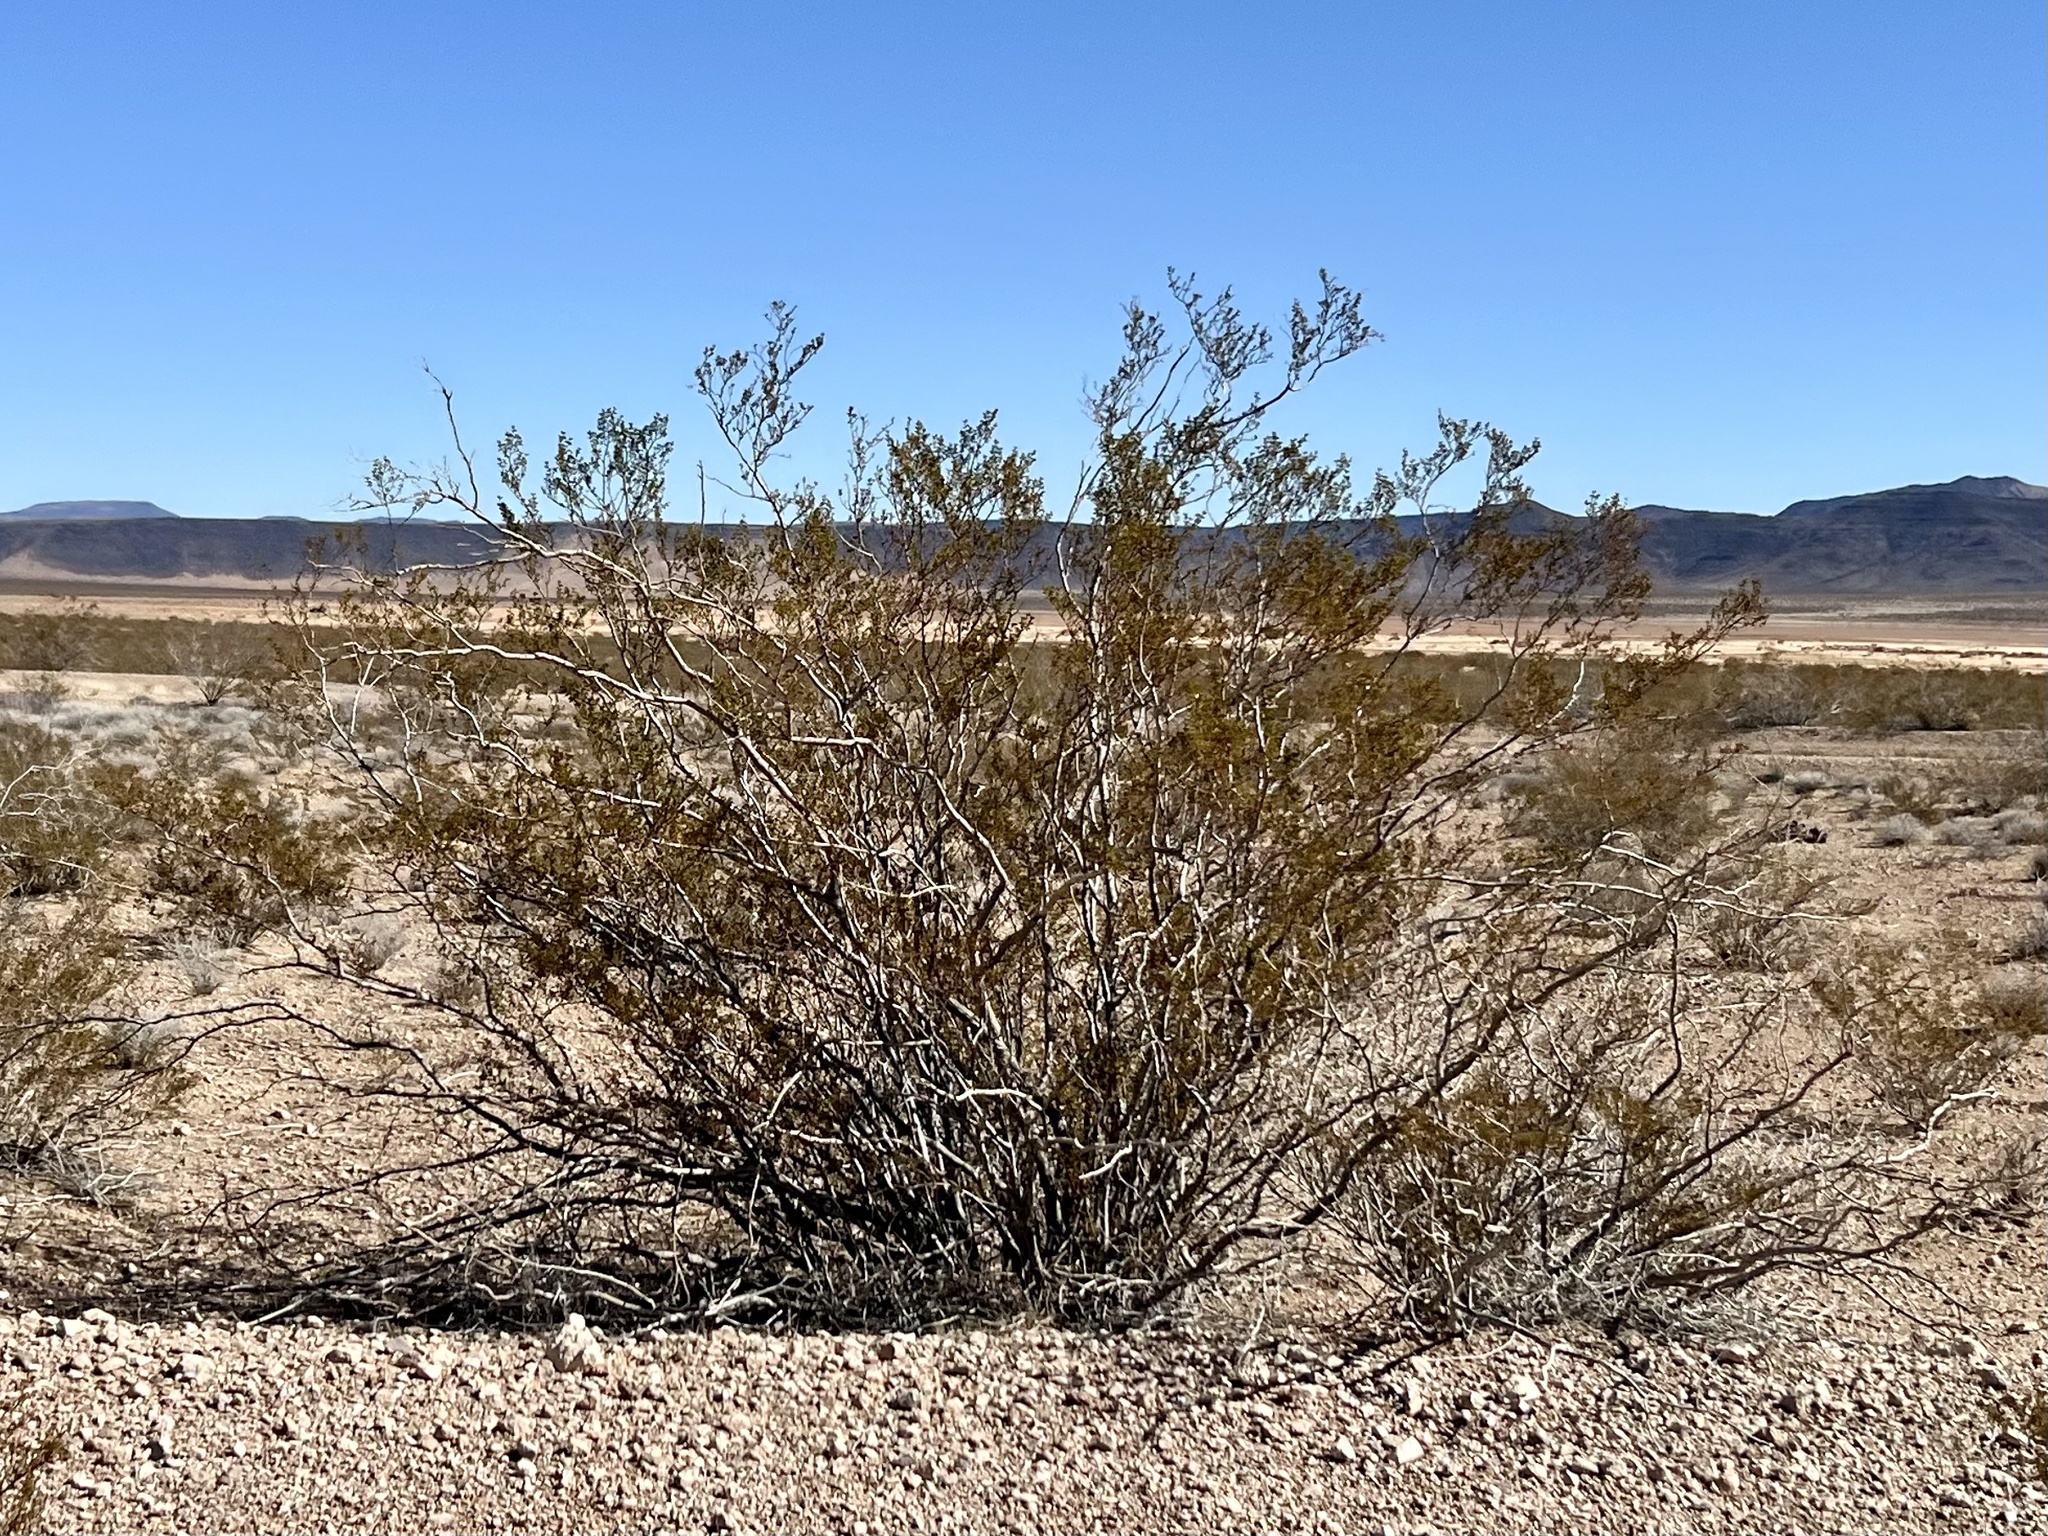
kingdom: Plantae
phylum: Tracheophyta
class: Magnoliopsida
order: Zygophyllales
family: Zygophyllaceae
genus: Larrea
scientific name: Larrea tridentata
